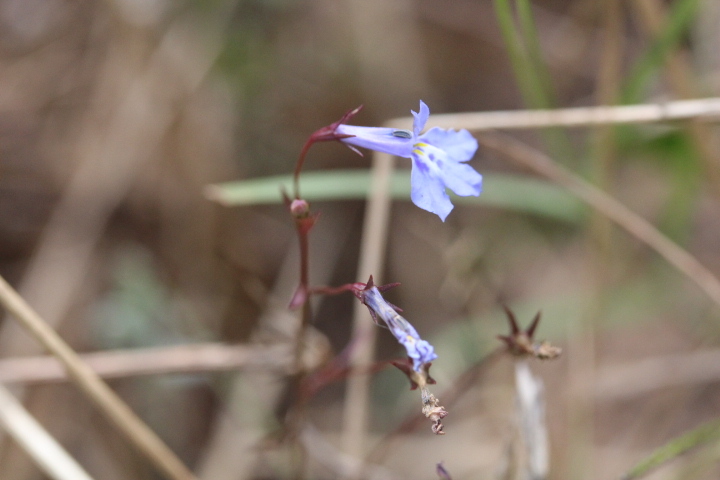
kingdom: Plantae
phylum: Tracheophyta
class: Magnoliopsida
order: Asterales
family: Campanulaceae
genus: Lobelia
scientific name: Lobelia erinus
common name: Edging lobelia
